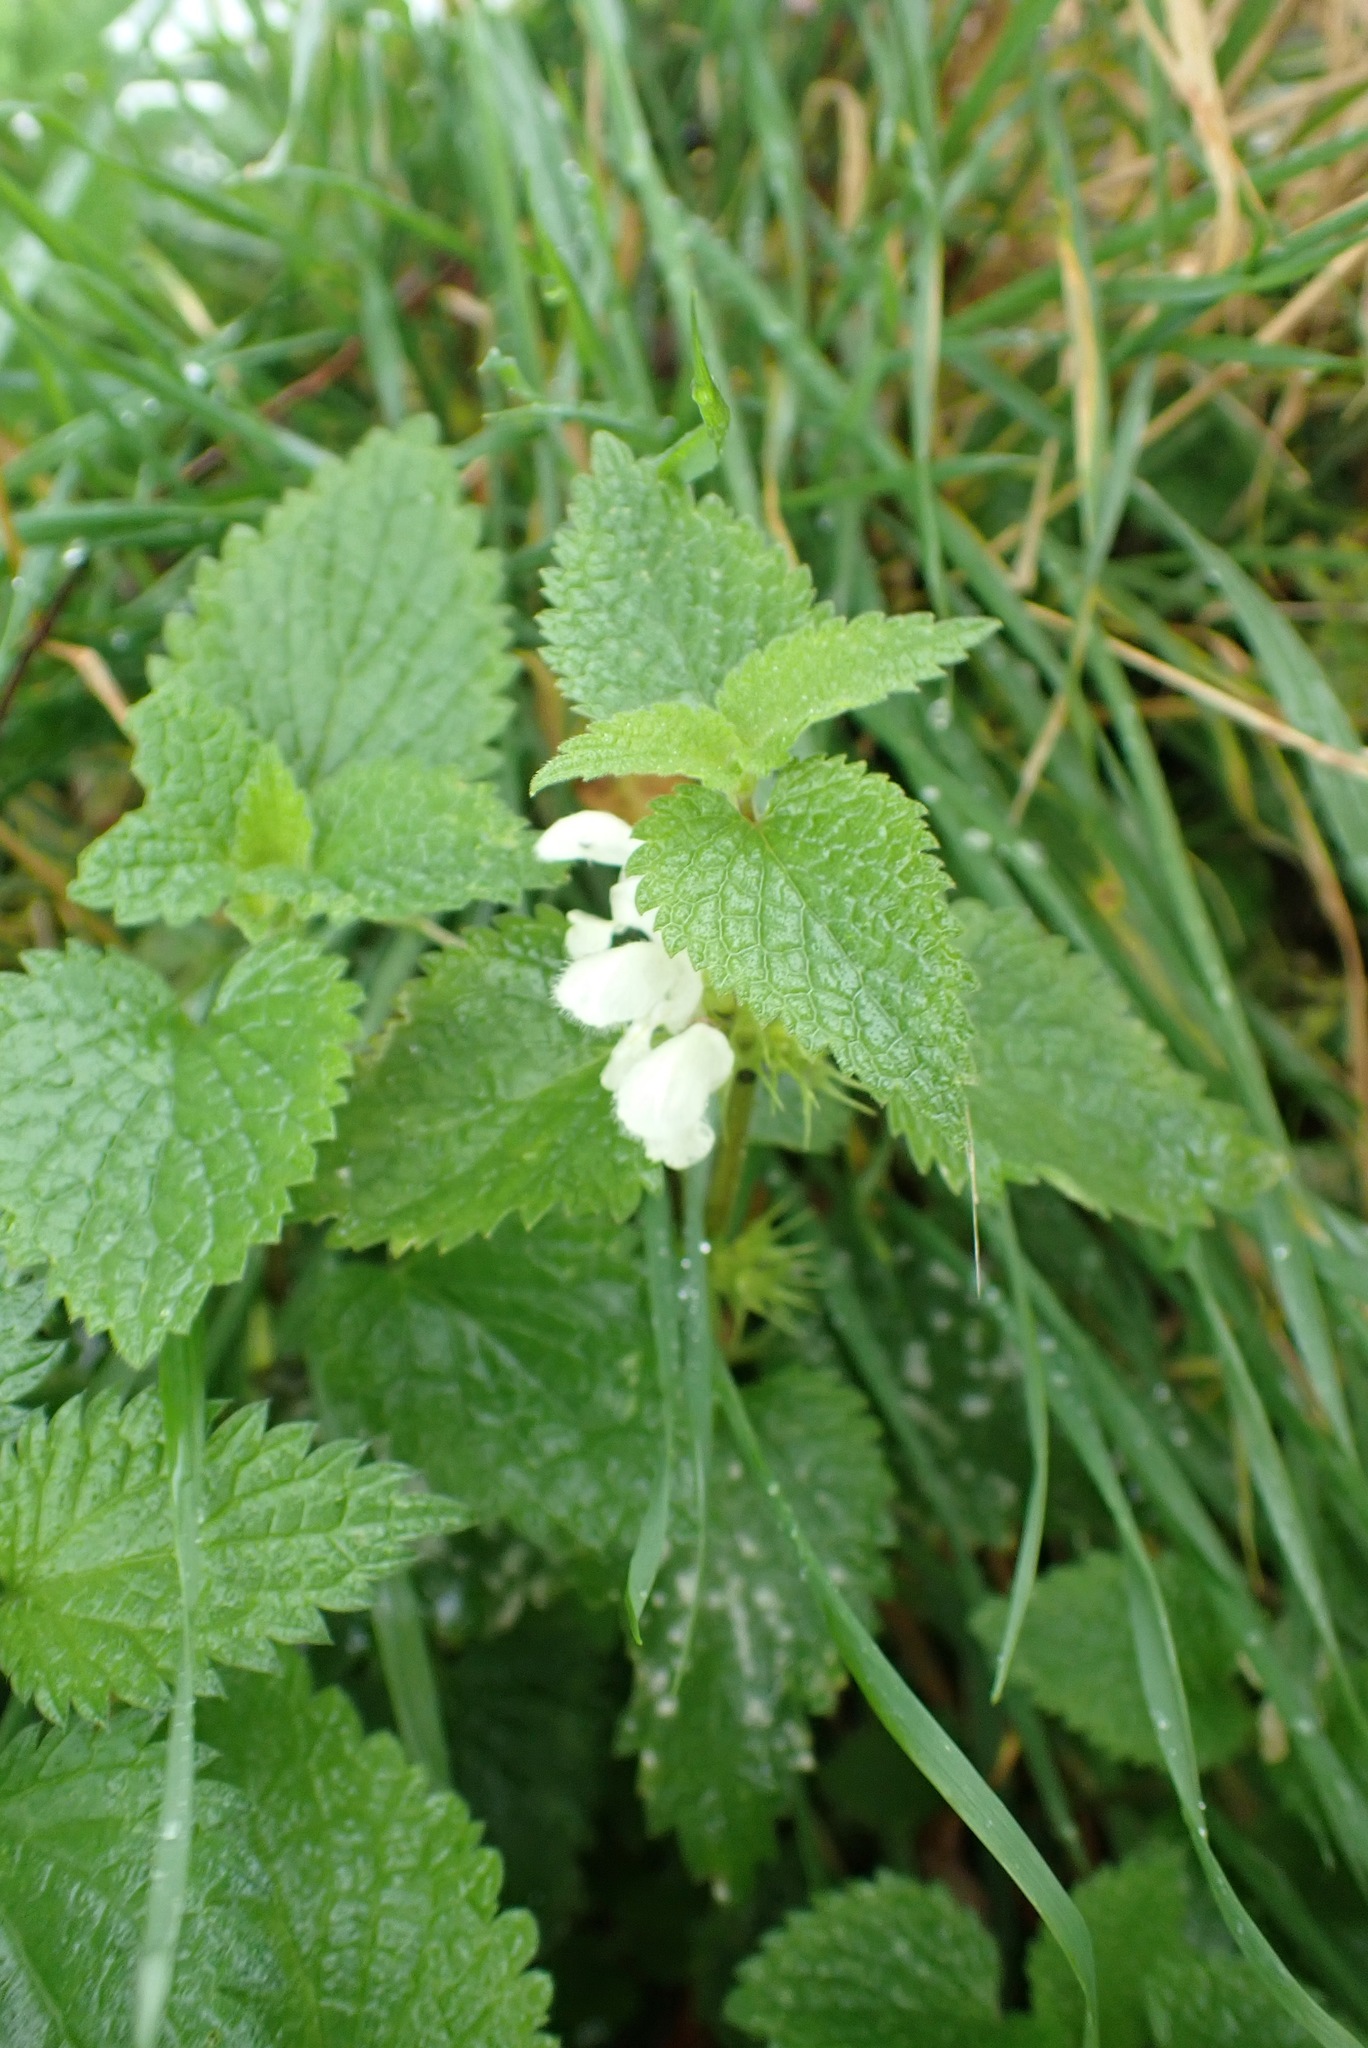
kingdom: Plantae
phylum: Tracheophyta
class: Magnoliopsida
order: Lamiales
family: Lamiaceae
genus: Lamium
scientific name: Lamium album
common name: White dead-nettle
